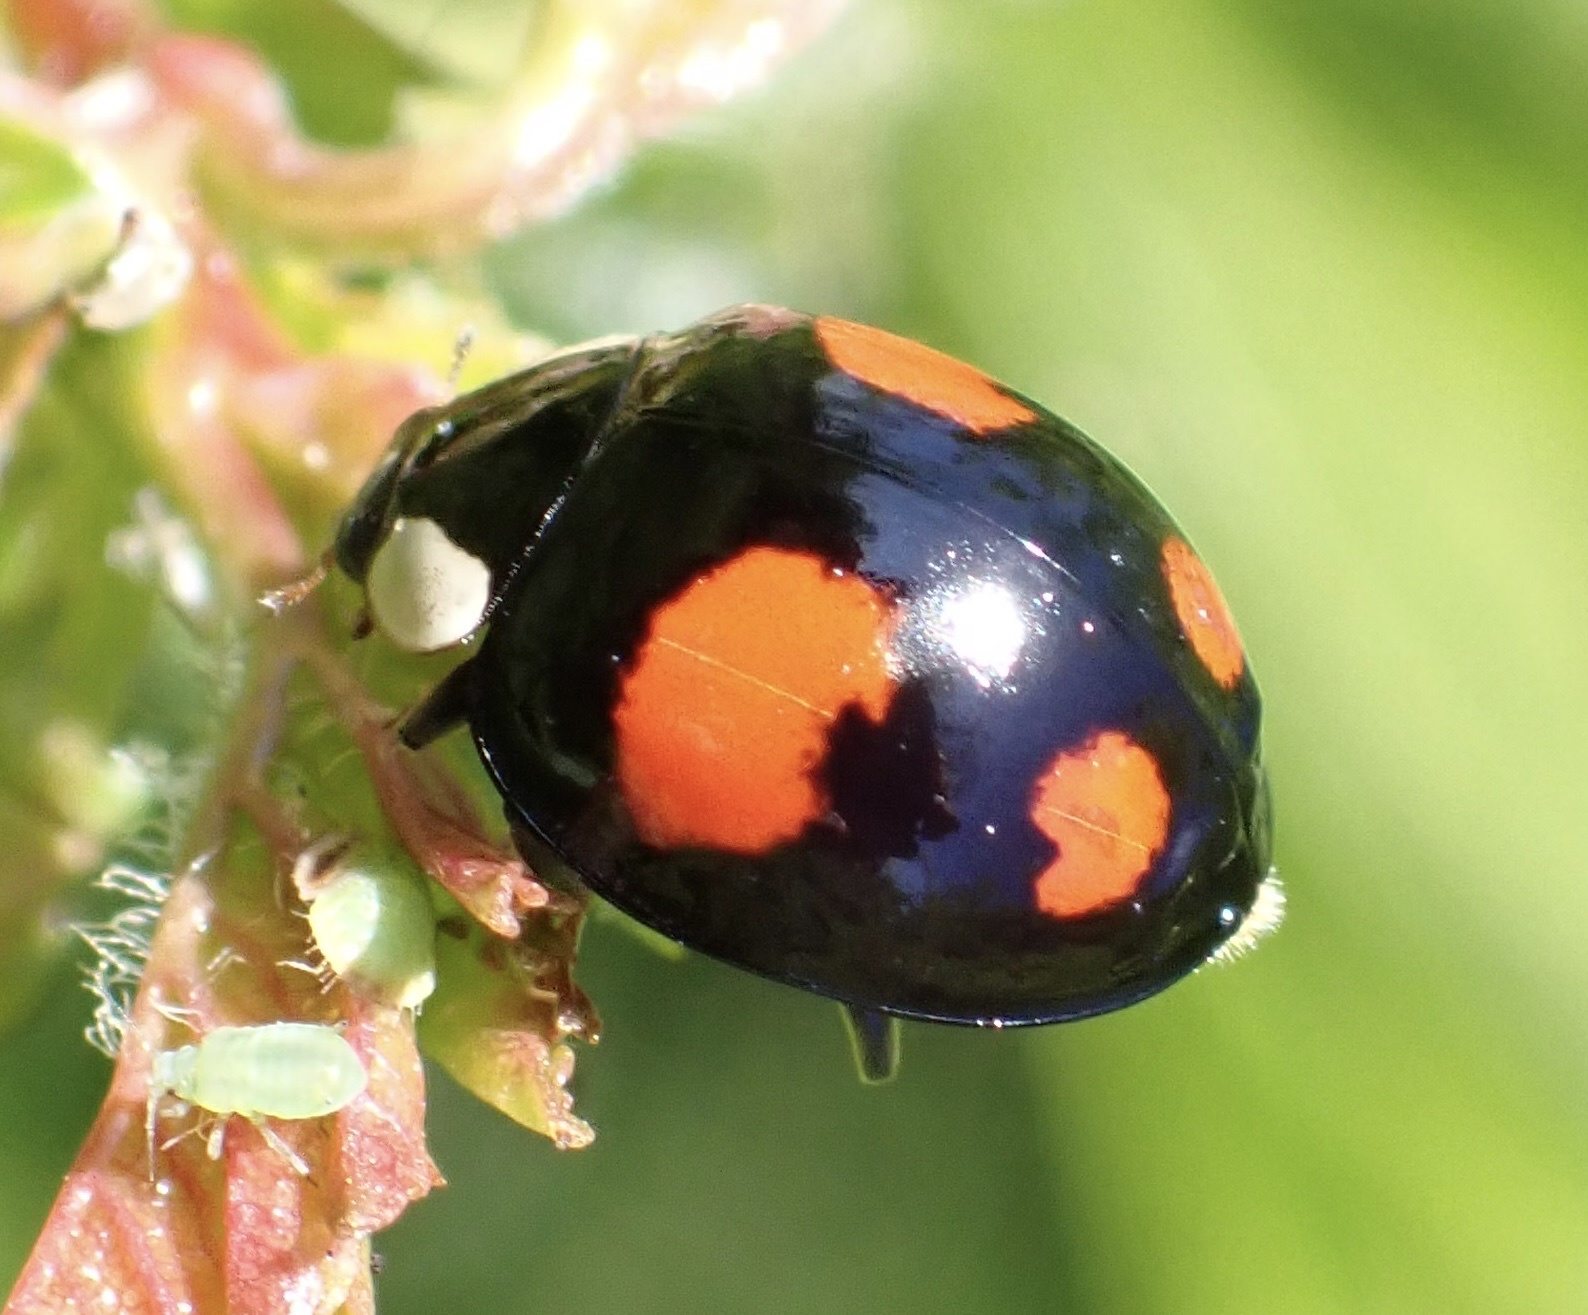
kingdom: Animalia
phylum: Arthropoda
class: Insecta
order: Coleoptera
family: Coccinellidae
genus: Harmonia
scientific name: Harmonia axyridis
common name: Harlequin ladybird
